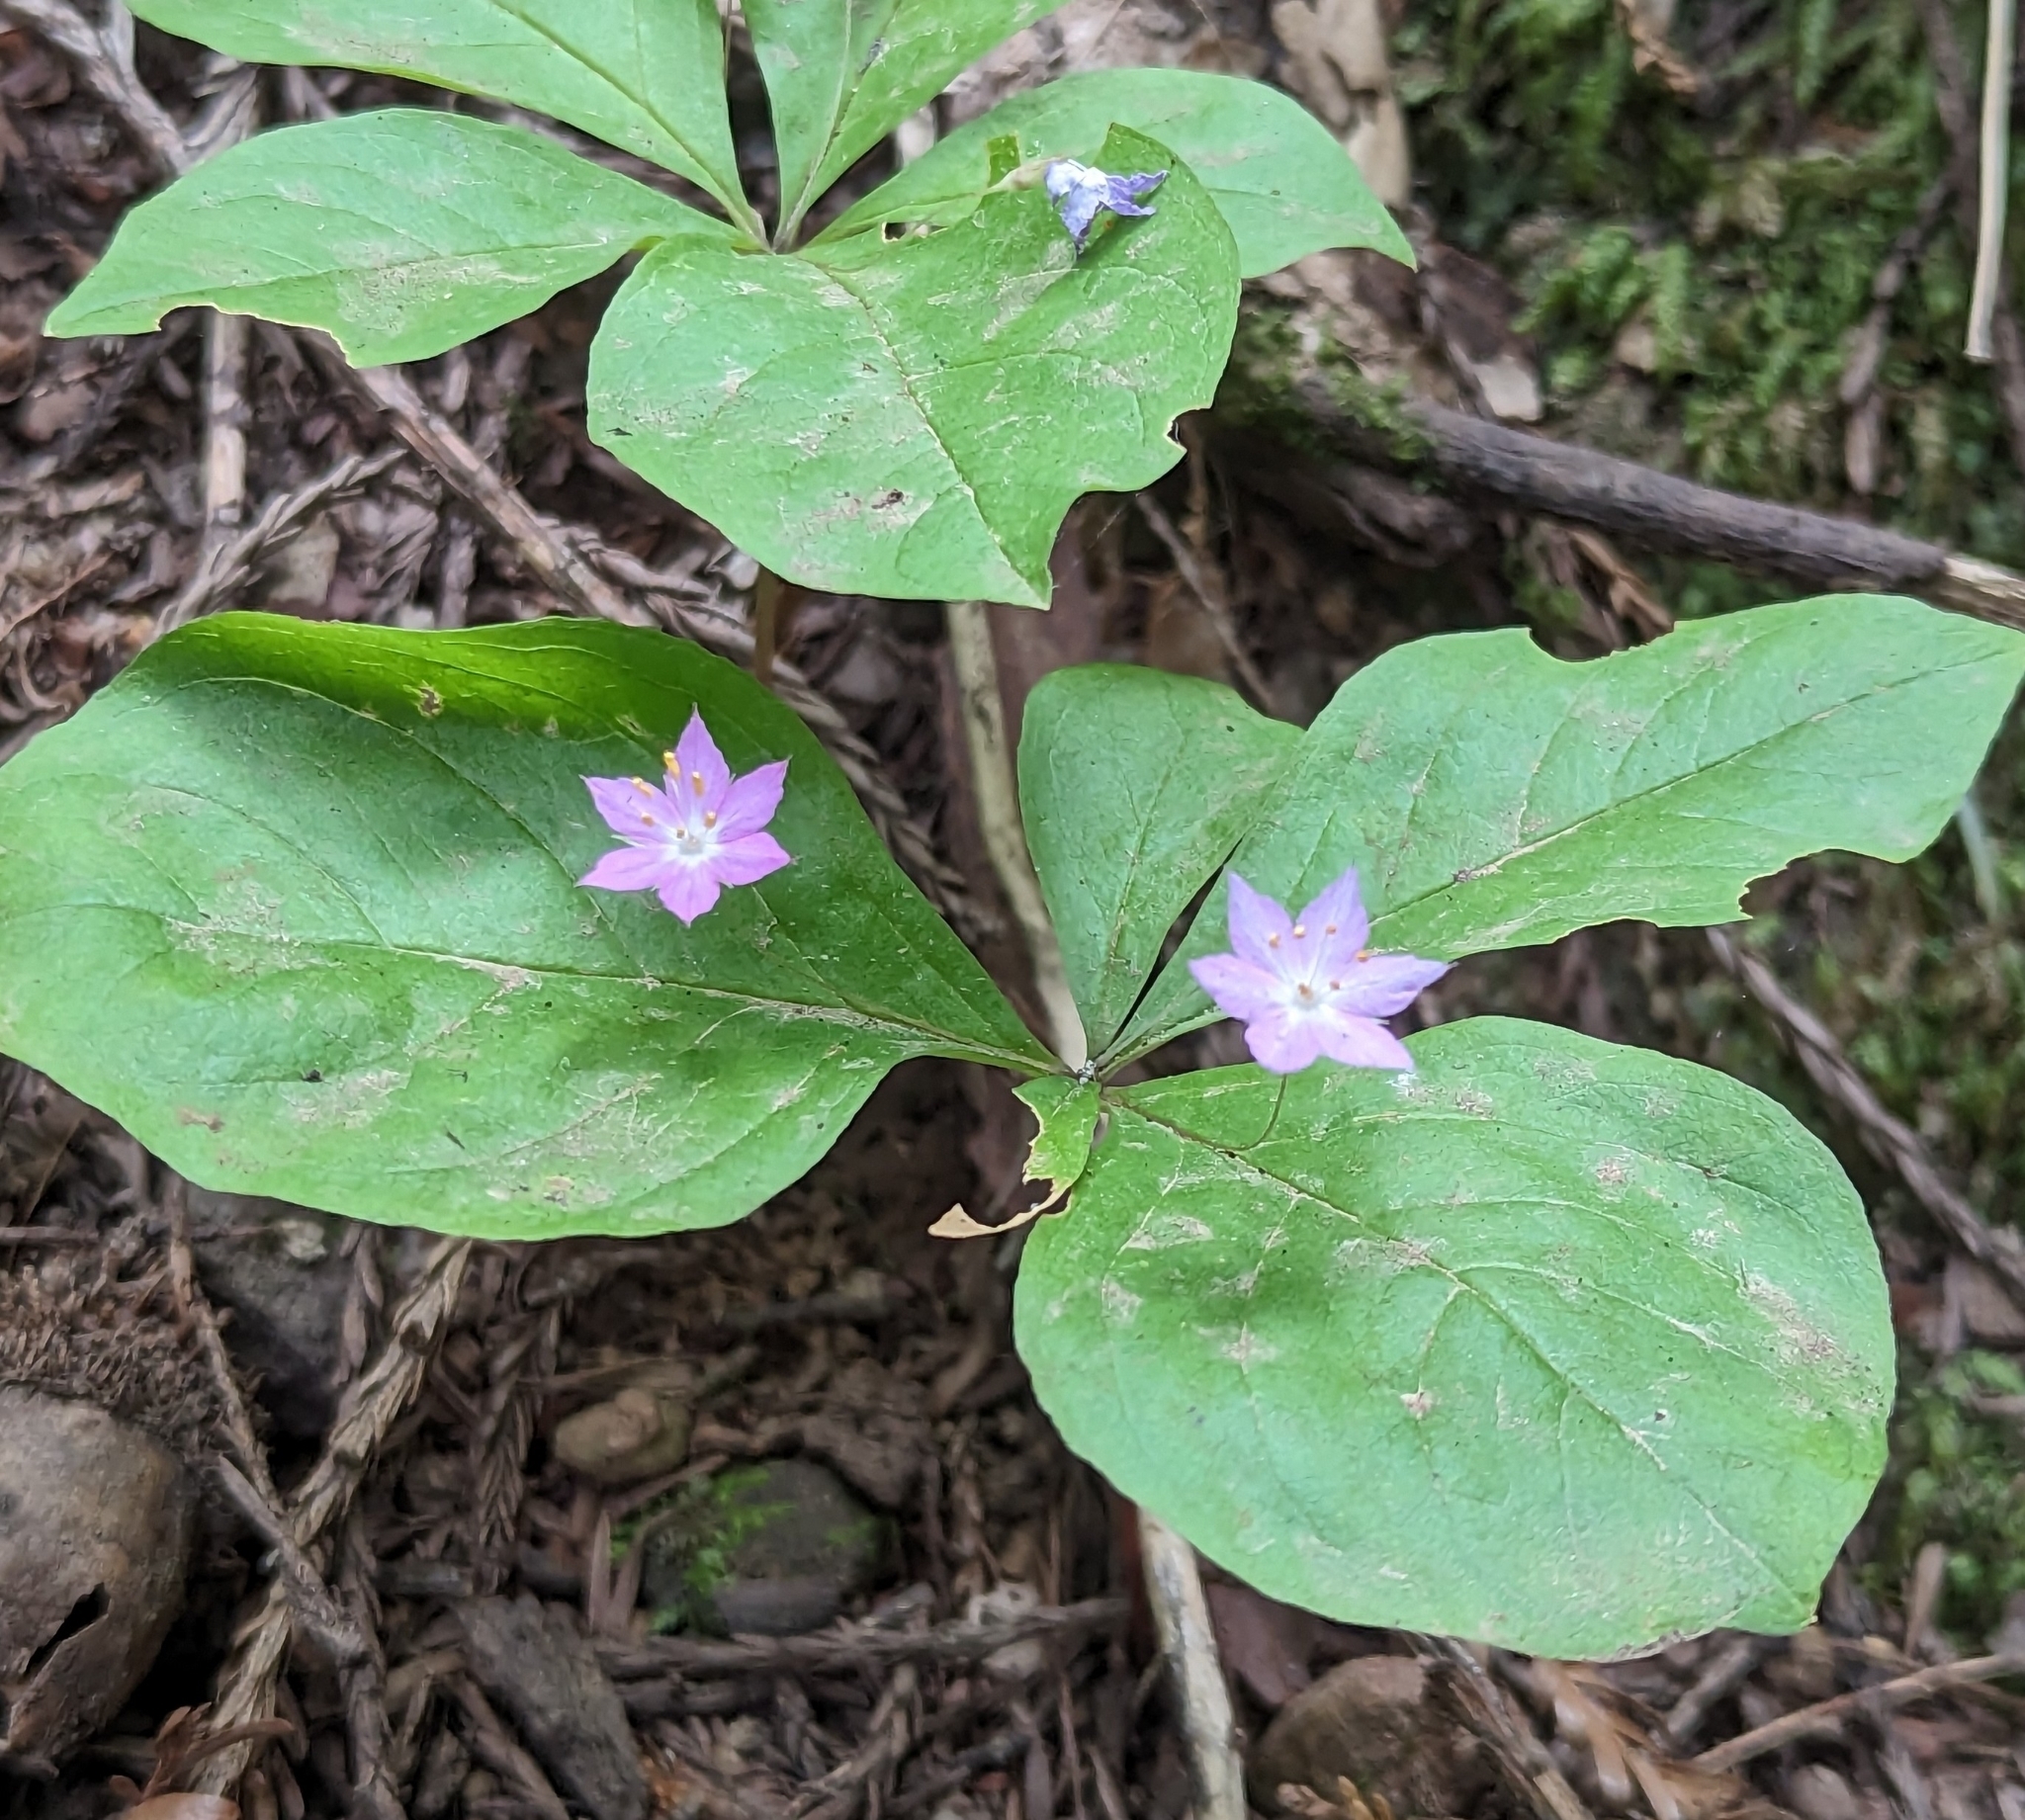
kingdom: Plantae
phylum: Tracheophyta
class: Magnoliopsida
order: Ericales
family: Primulaceae
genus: Lysimachia
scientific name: Lysimachia latifolia
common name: Pacific starflower
